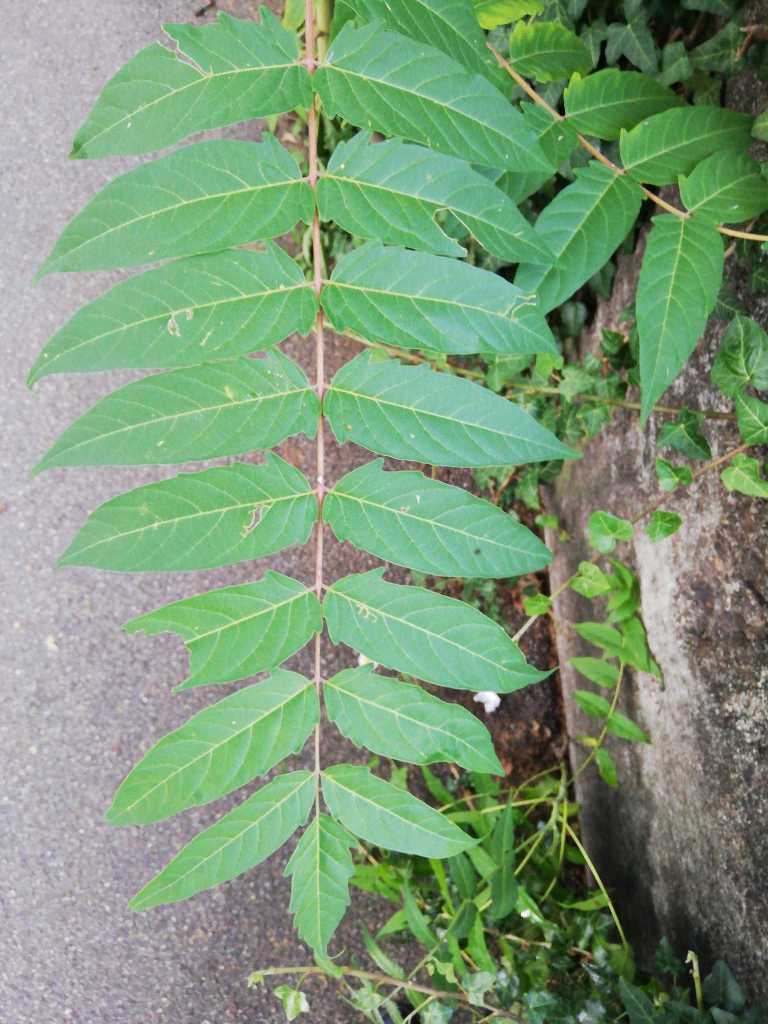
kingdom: Plantae
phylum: Tracheophyta
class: Magnoliopsida
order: Sapindales
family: Simaroubaceae
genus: Ailanthus
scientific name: Ailanthus altissima
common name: Tree-of-heaven
